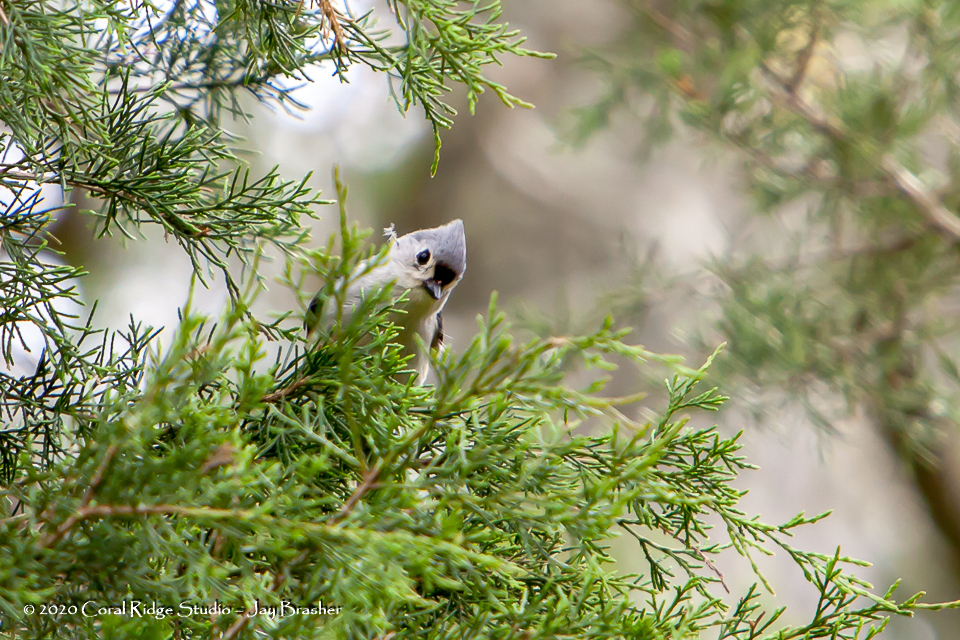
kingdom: Animalia
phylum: Chordata
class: Aves
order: Passeriformes
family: Paridae
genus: Baeolophus
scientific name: Baeolophus bicolor
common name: Tufted titmouse
